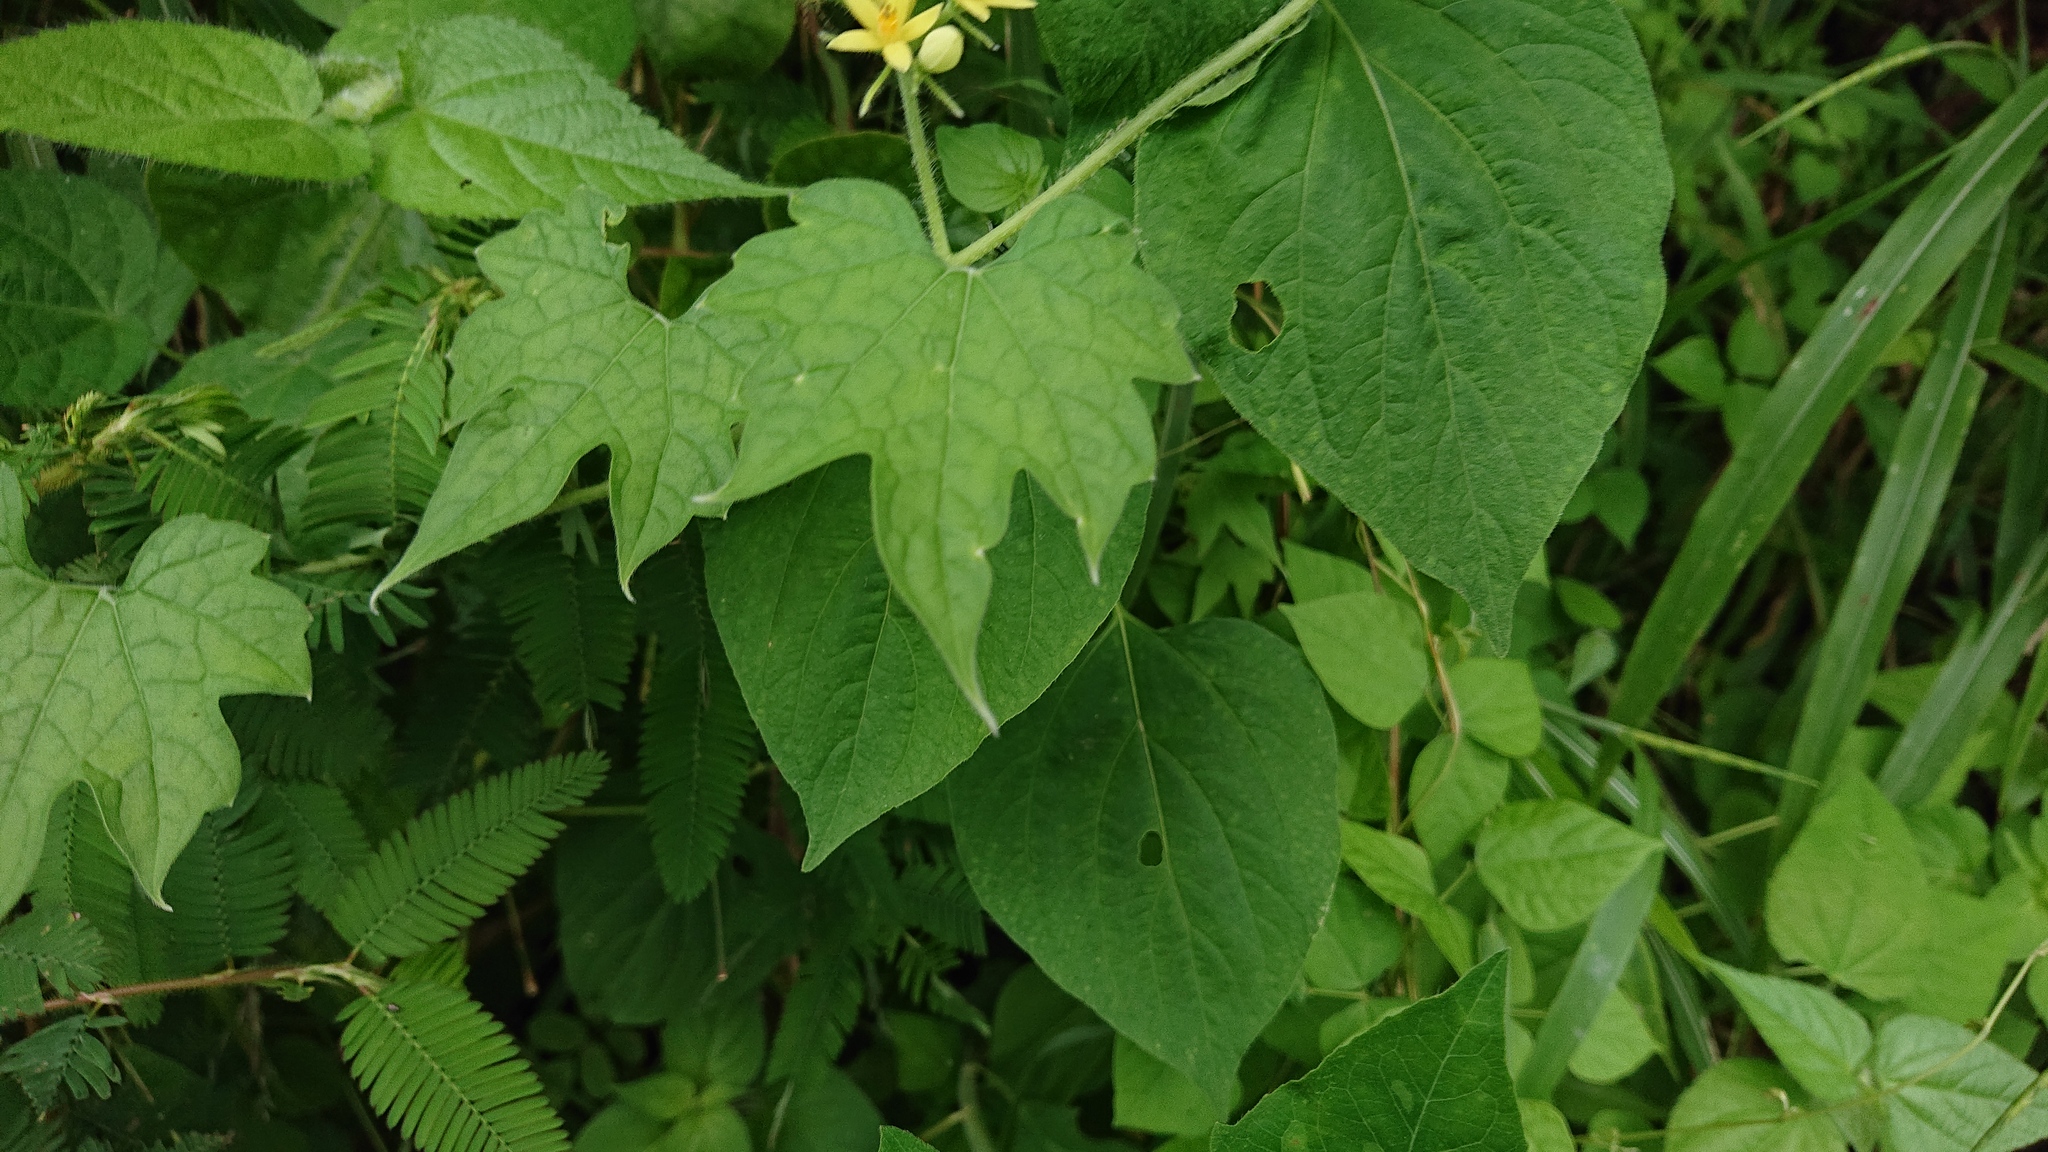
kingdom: Plantae
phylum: Tracheophyta
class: Magnoliopsida
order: Cornales
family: Loasaceae
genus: Gronovia
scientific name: Gronovia scandens
